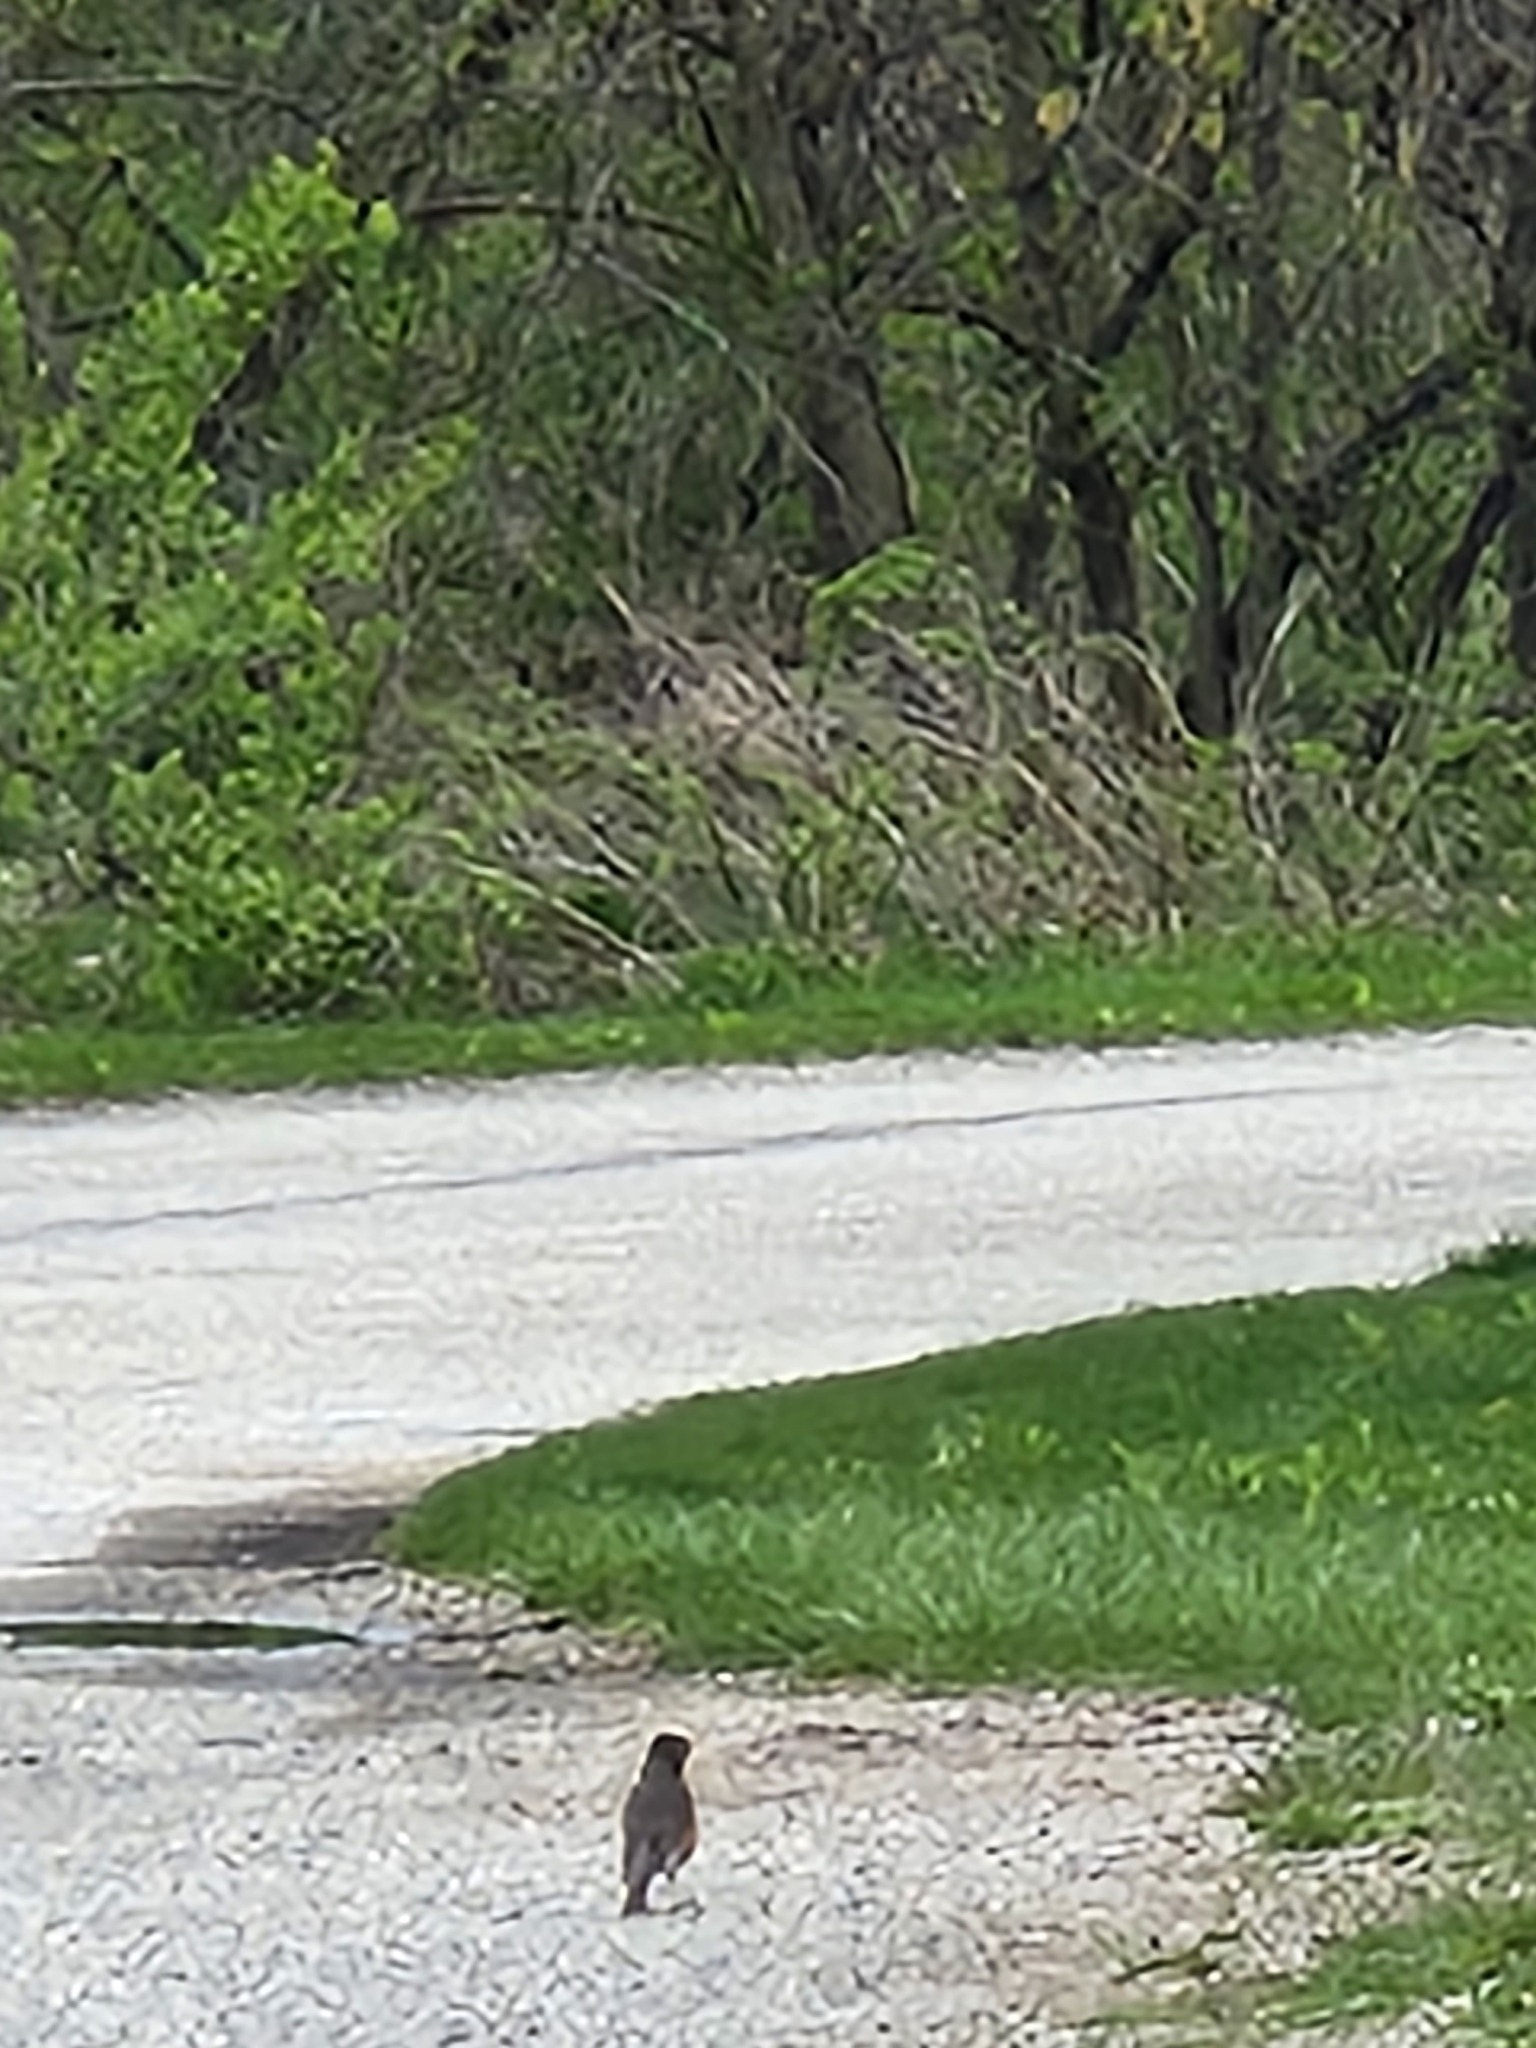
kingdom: Animalia
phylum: Chordata
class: Aves
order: Passeriformes
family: Turdidae
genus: Turdus
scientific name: Turdus migratorius
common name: American robin
